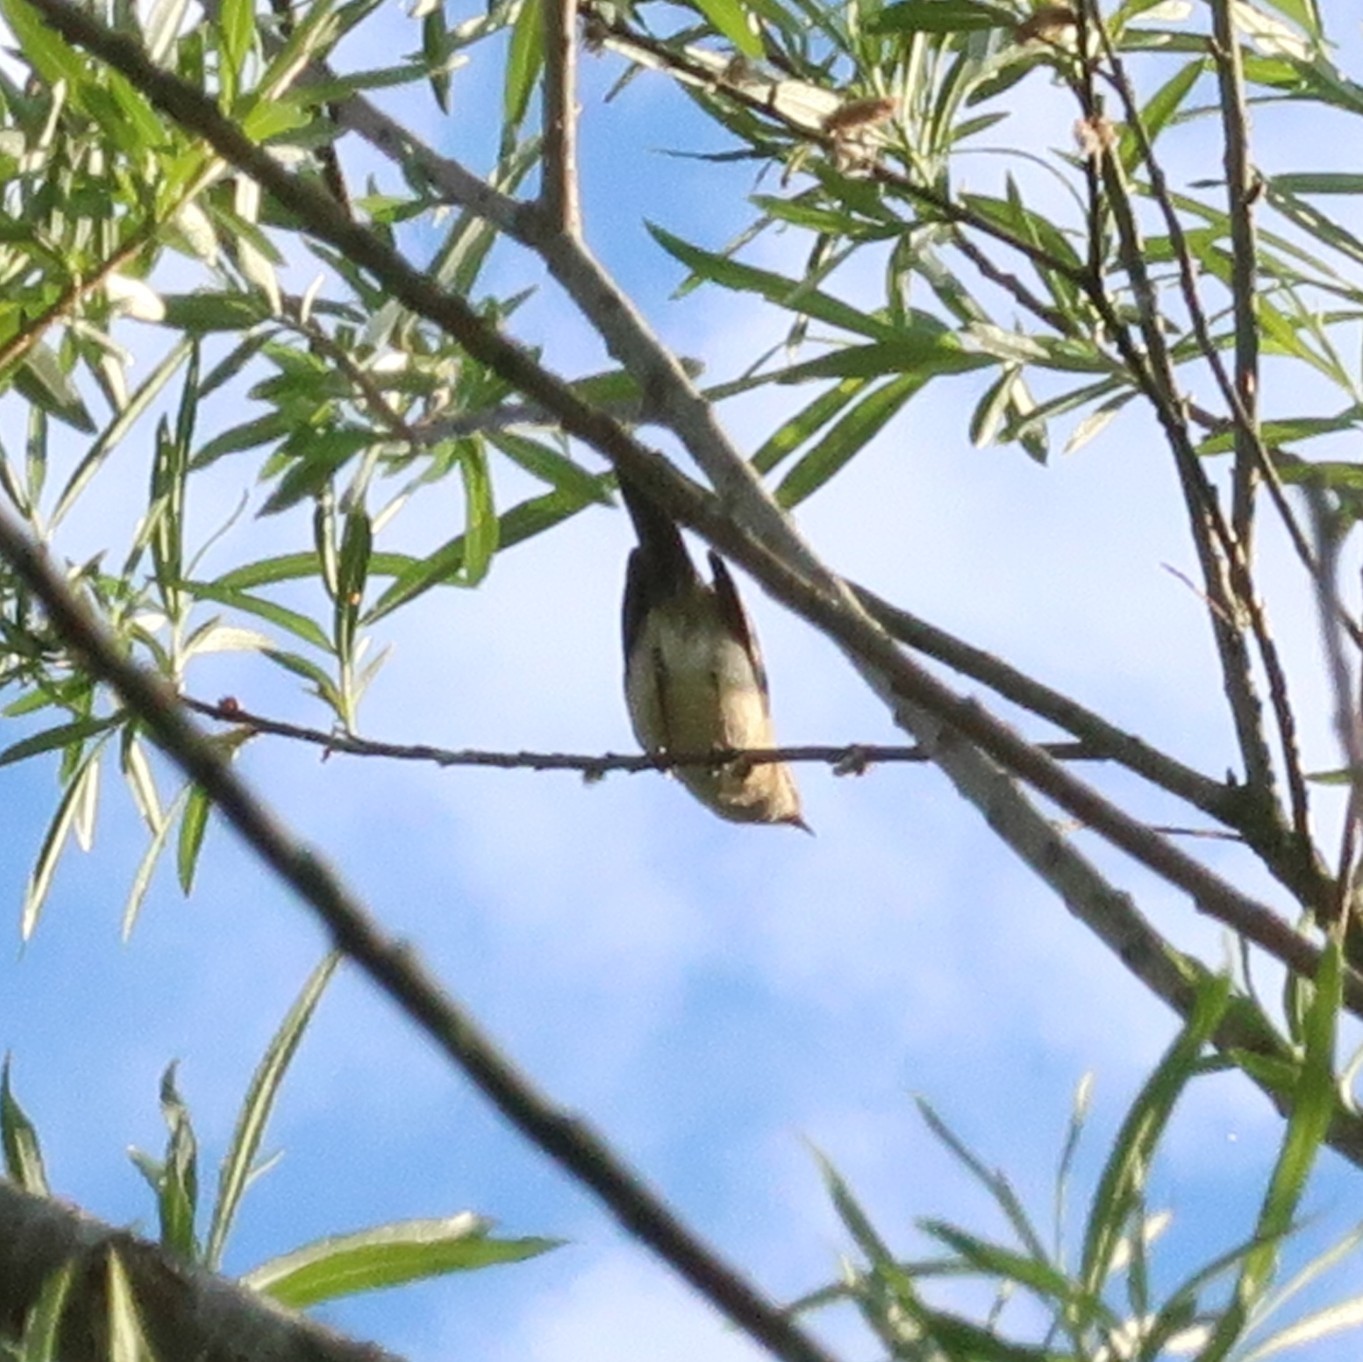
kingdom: Animalia
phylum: Chordata
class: Aves
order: Passeriformes
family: Phylloscopidae
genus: Phylloscopus
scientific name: Phylloscopus collybita
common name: Common chiffchaff
